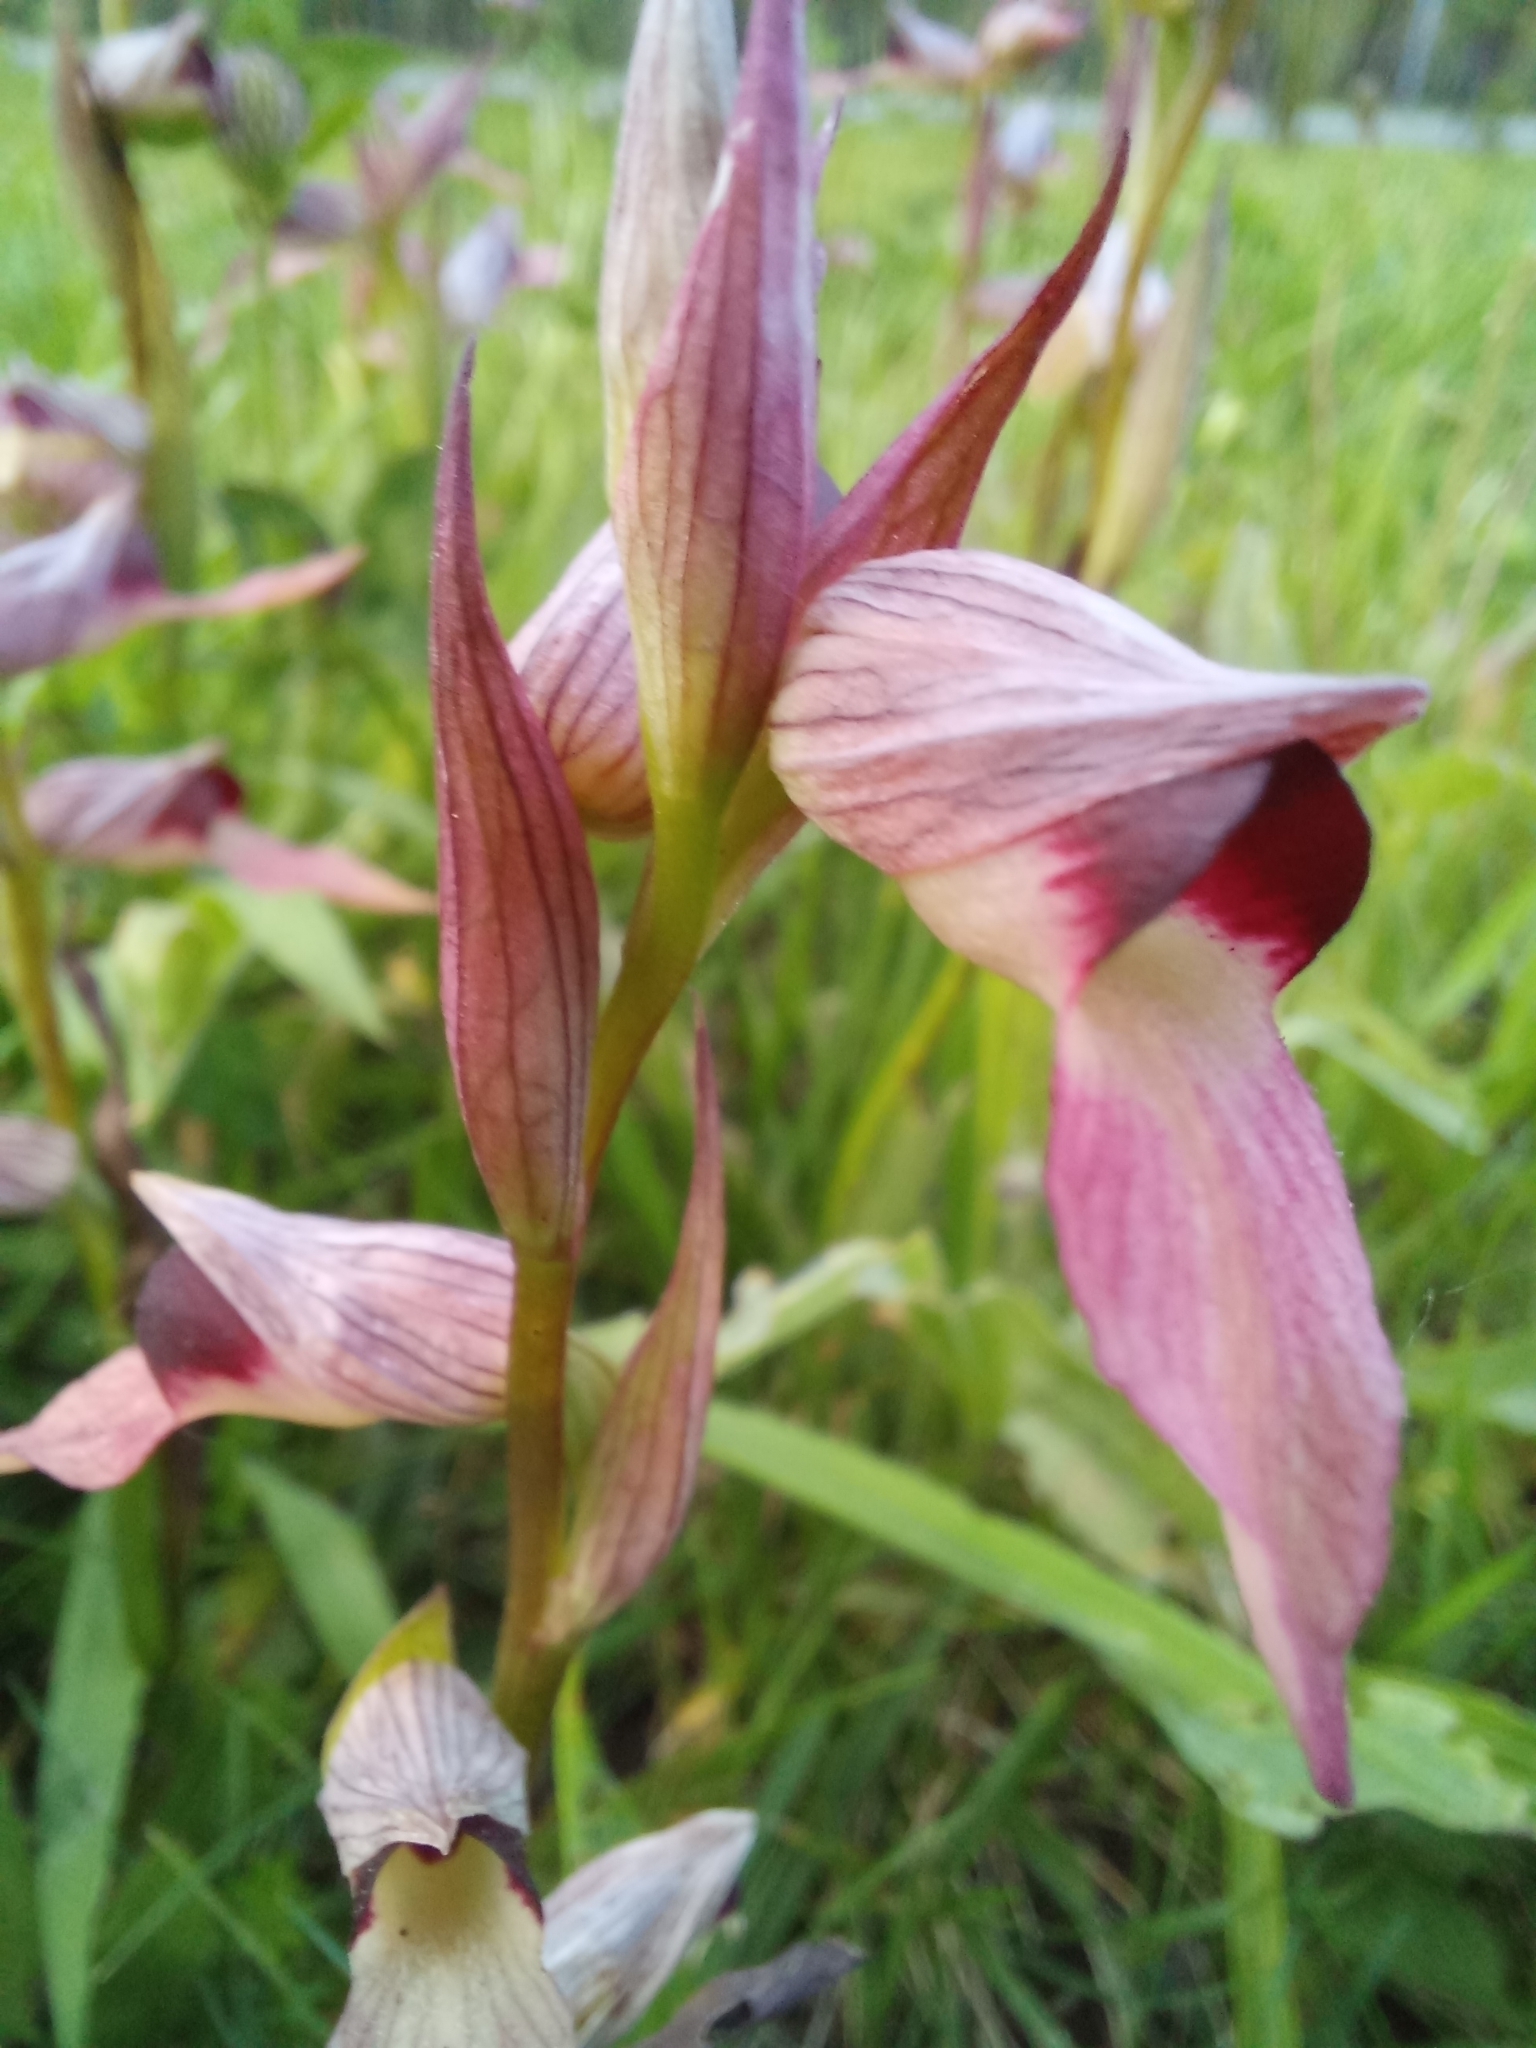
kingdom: Plantae
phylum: Tracheophyta
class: Liliopsida
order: Asparagales
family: Orchidaceae
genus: Serapias
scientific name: Serapias lingua
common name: Tongue-orchid
